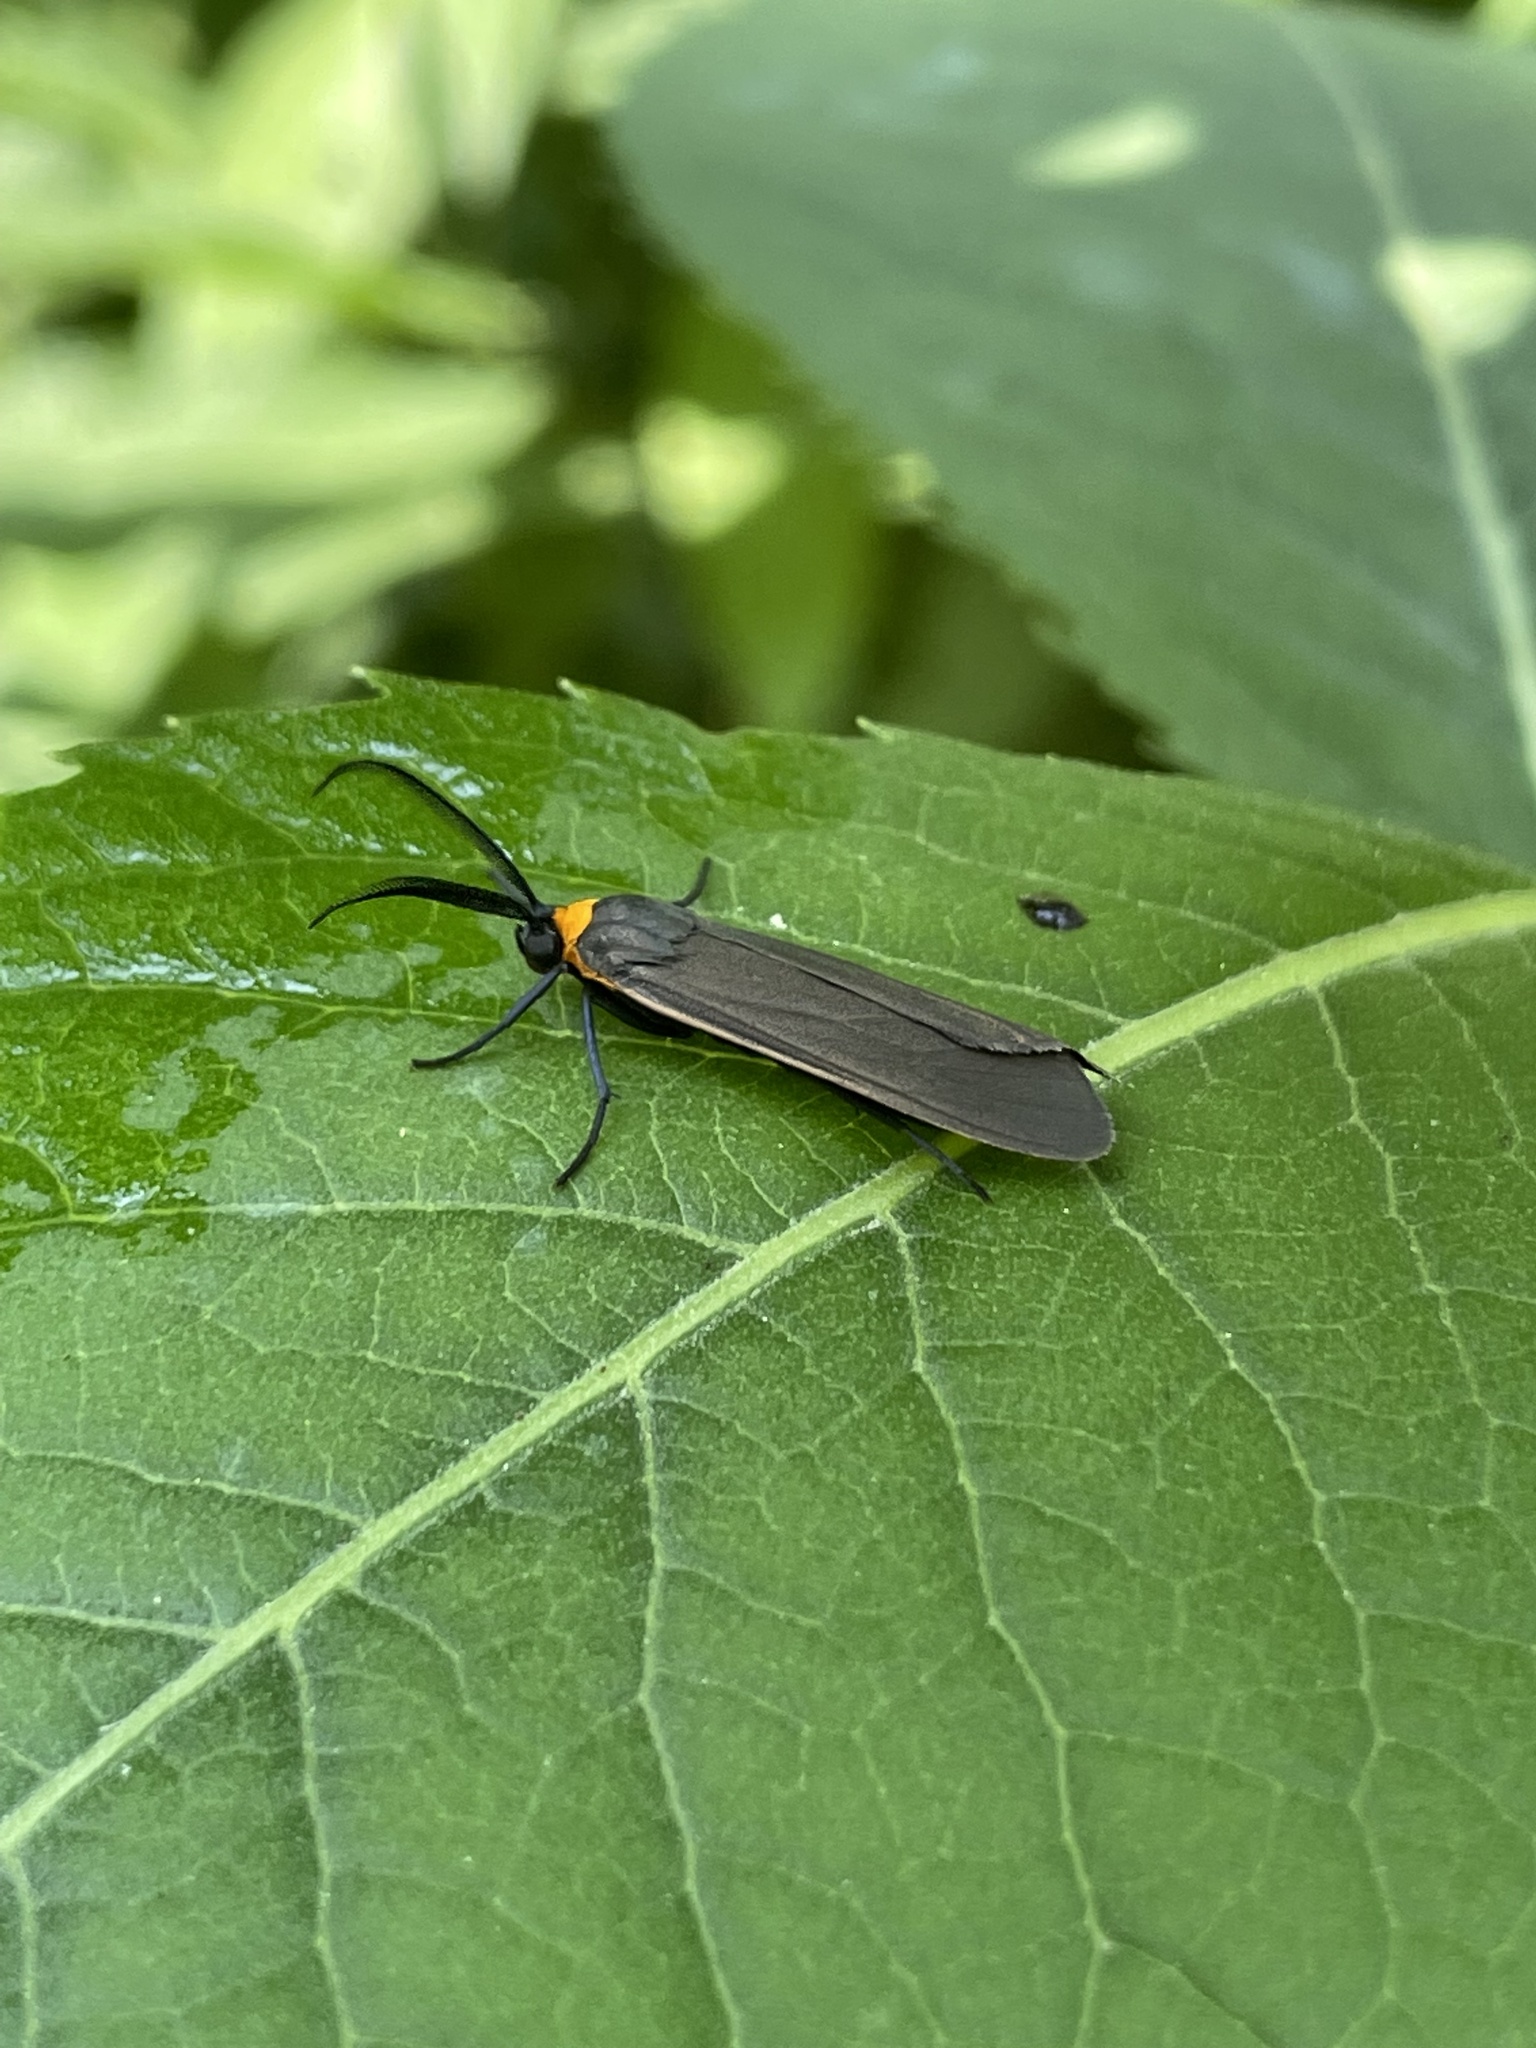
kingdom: Animalia
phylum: Arthropoda
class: Insecta
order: Lepidoptera
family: Erebidae
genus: Cisseps
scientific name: Cisseps fulvicollis
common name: Yellow-collared scape moth
